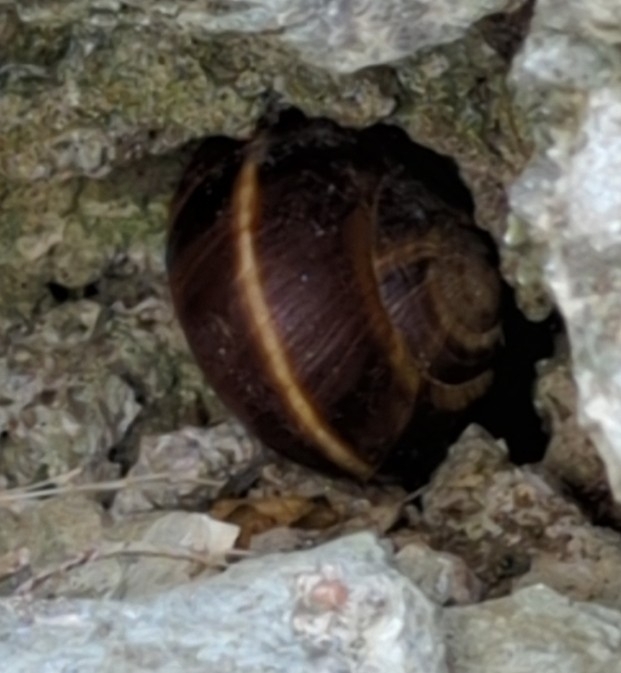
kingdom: Animalia
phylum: Mollusca
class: Gastropoda
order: Stylommatophora
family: Helicidae
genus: Helix
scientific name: Helix lucorum
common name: Turkish snail
